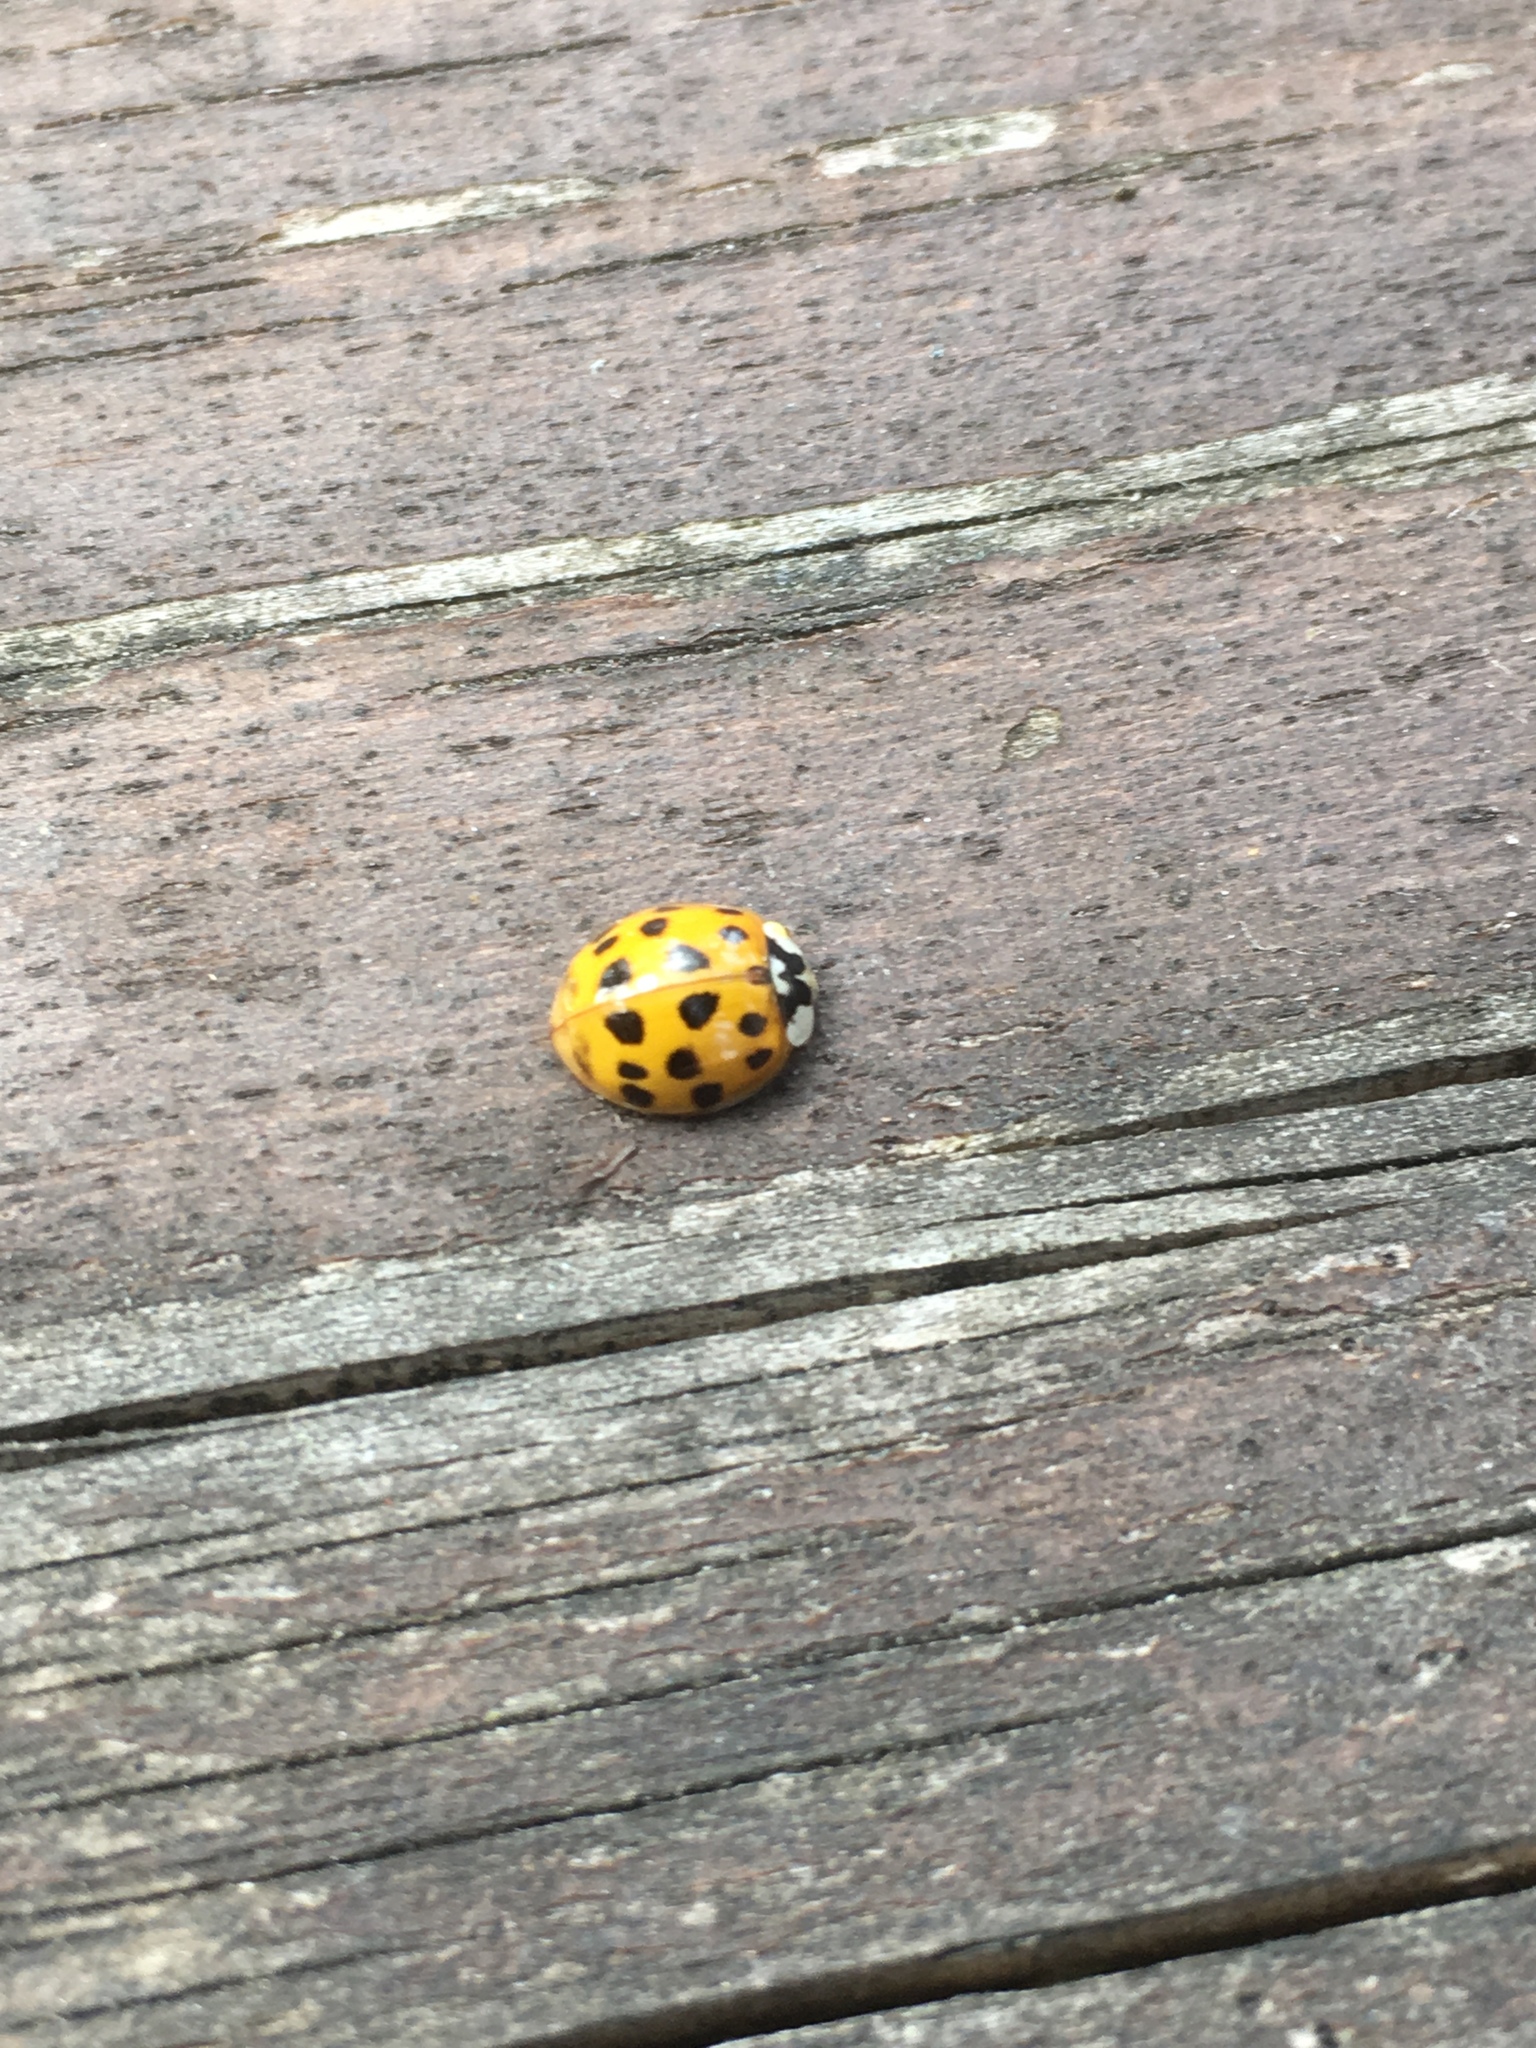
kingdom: Animalia
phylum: Arthropoda
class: Insecta
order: Coleoptera
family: Coccinellidae
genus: Harmonia
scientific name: Harmonia axyridis
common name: Harlequin ladybird
